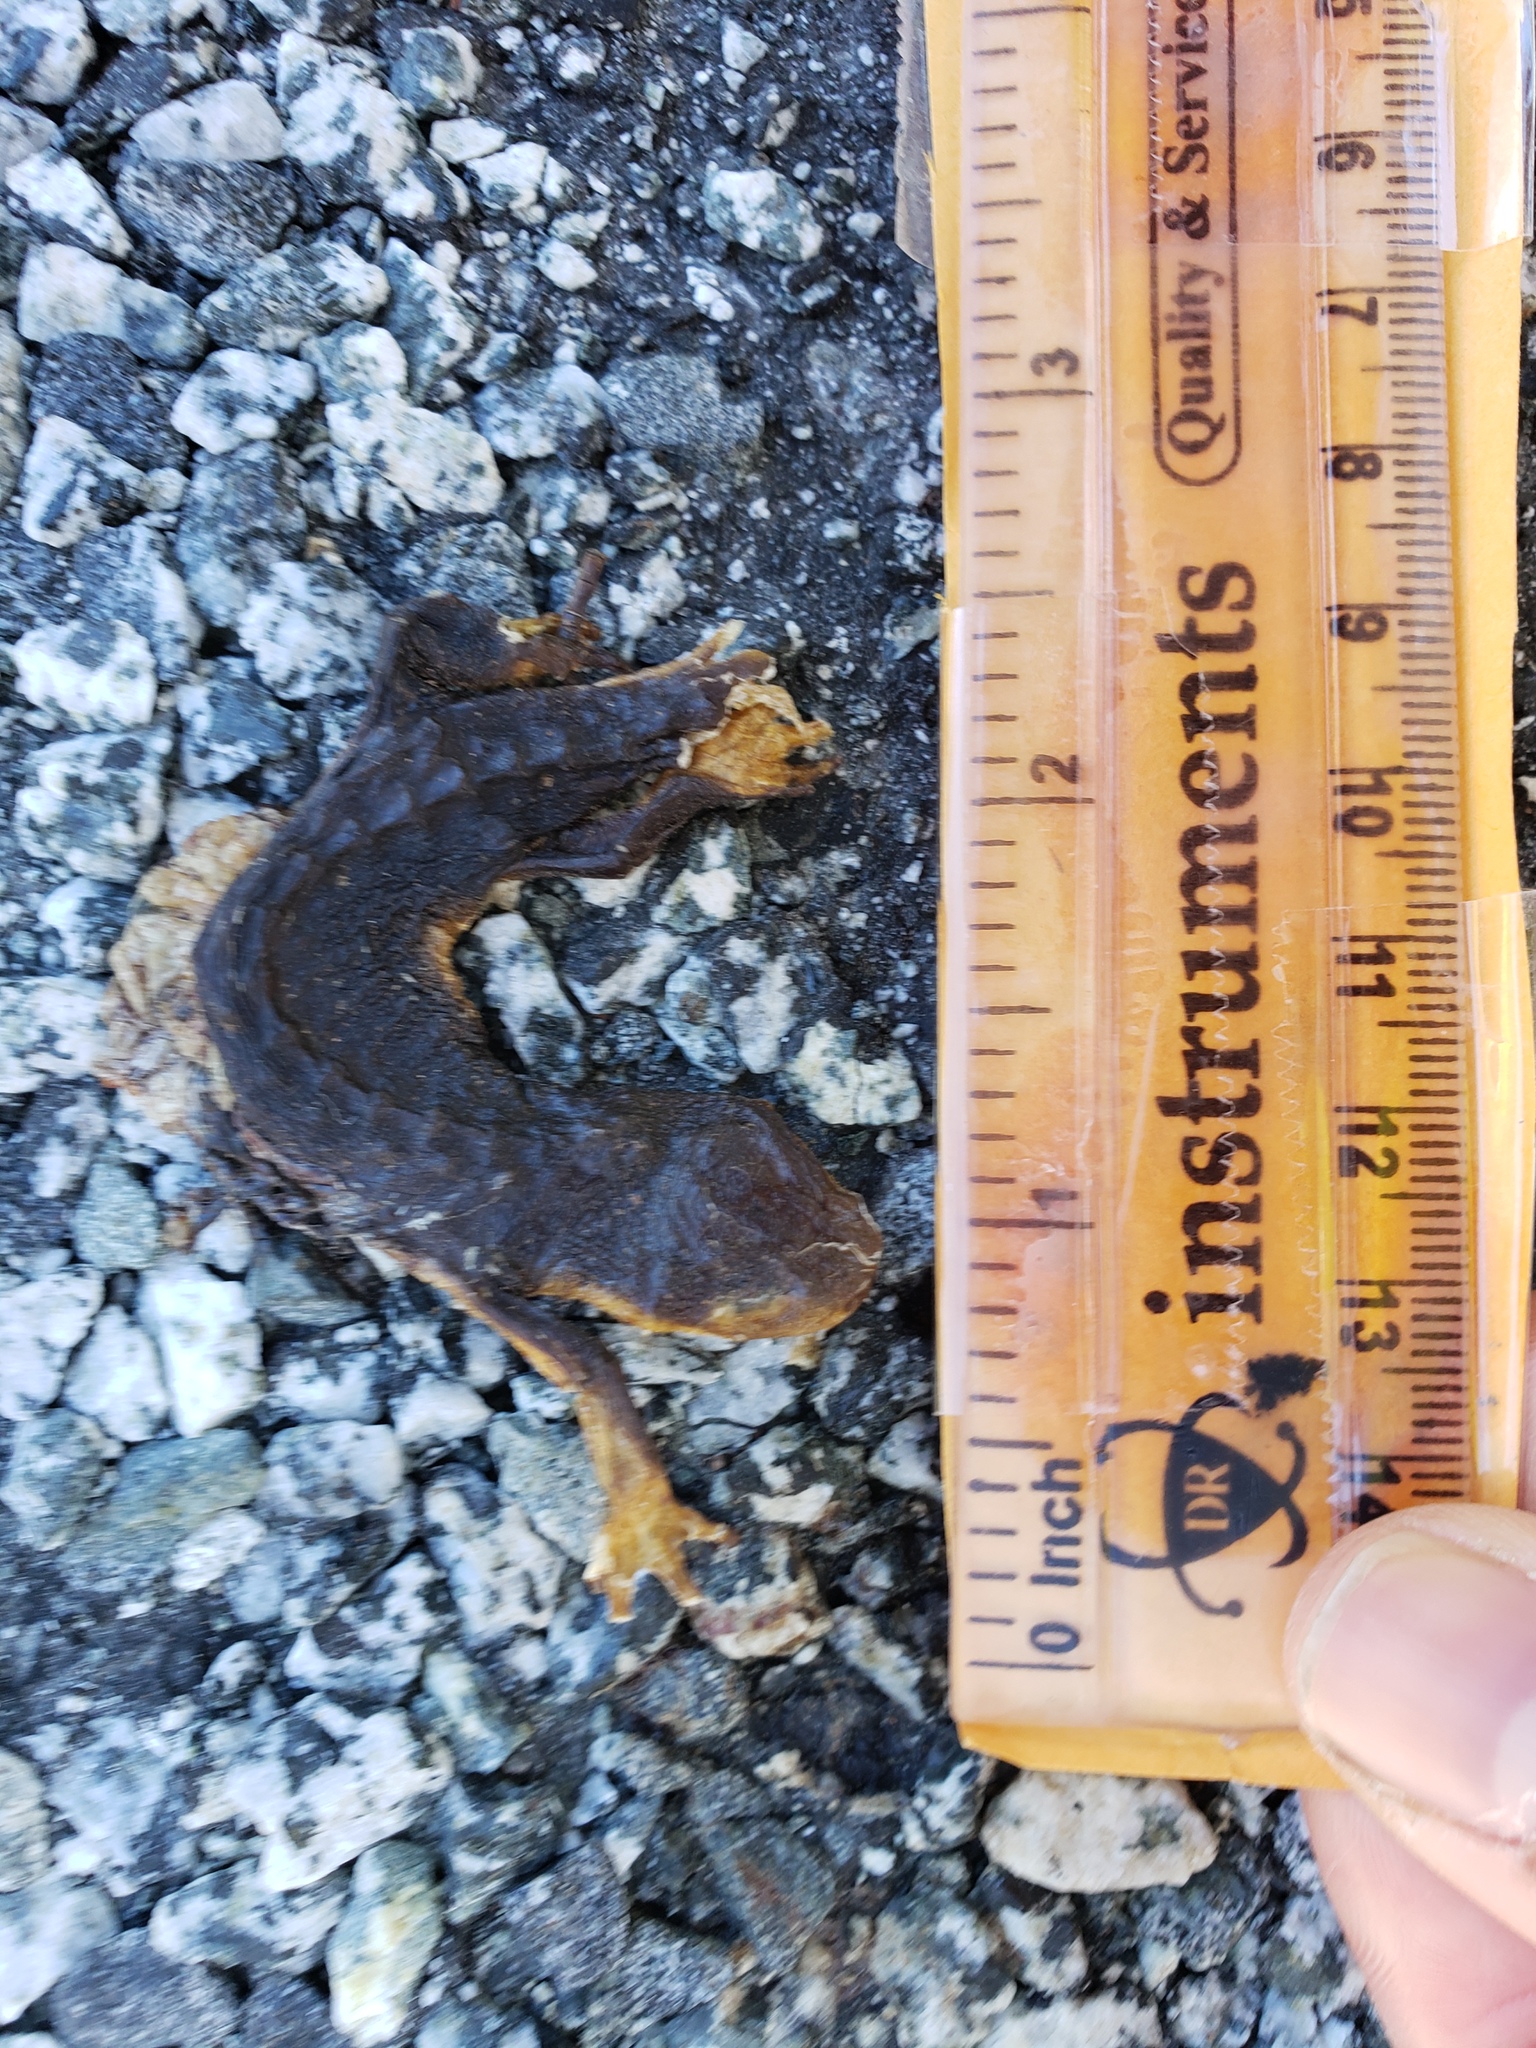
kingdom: Animalia
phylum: Chordata
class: Amphibia
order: Caudata
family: Salamandridae
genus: Taricha
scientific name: Taricha
